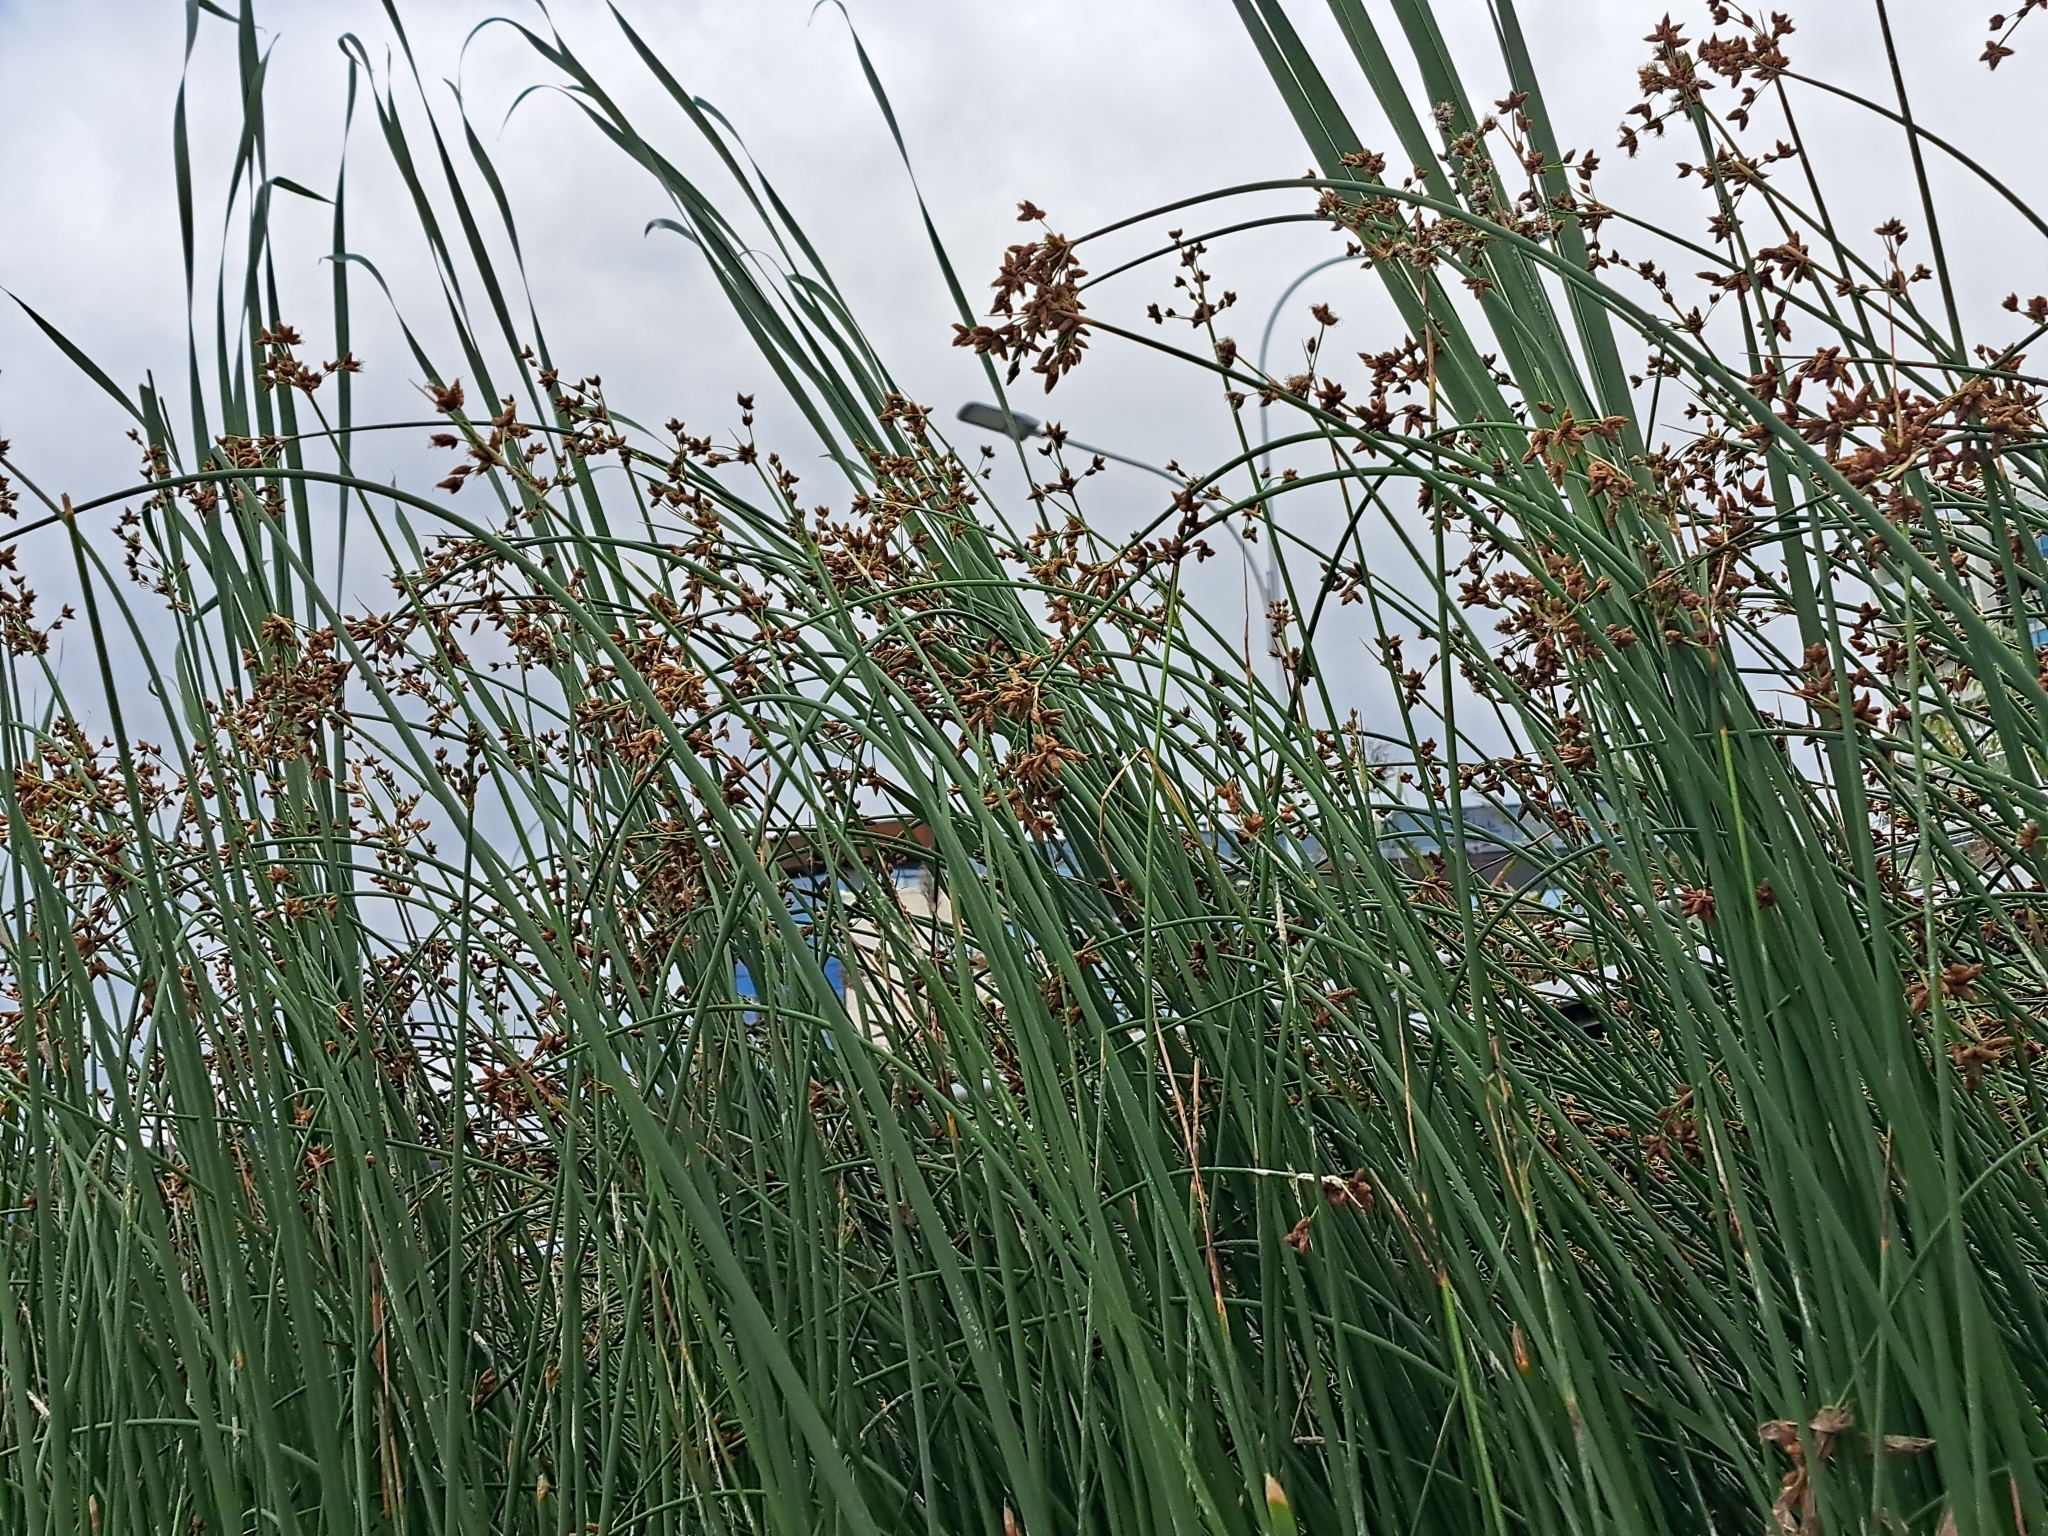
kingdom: Plantae
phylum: Tracheophyta
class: Liliopsida
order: Poales
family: Cyperaceae
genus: Schoenoplectus
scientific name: Schoenoplectus lacustris
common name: Common club-rush
